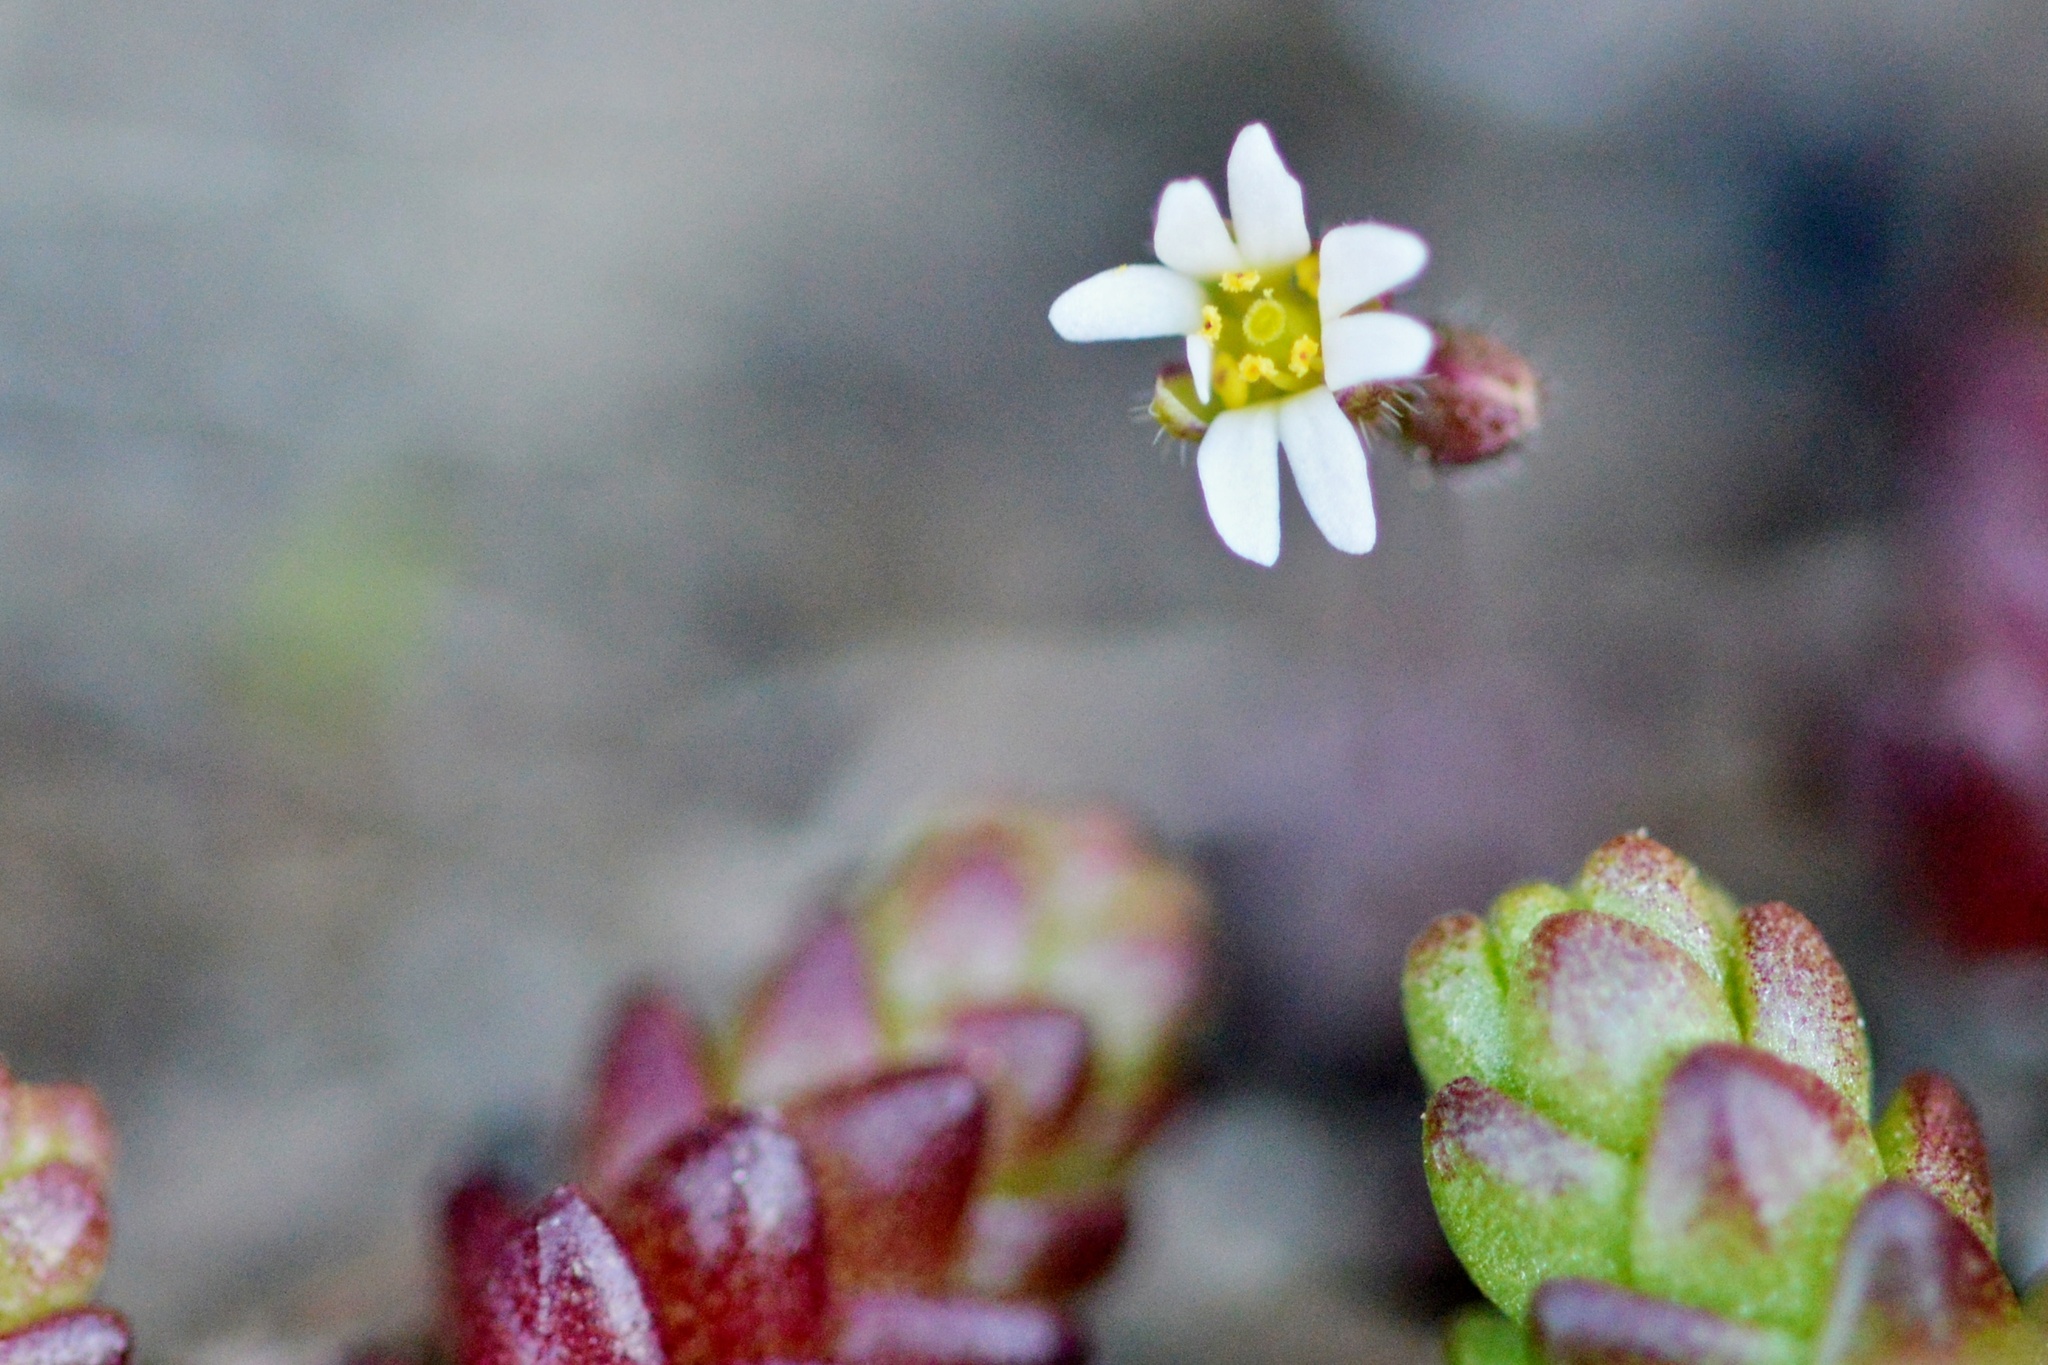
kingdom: Plantae
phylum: Tracheophyta
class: Magnoliopsida
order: Brassicales
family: Brassicaceae
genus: Draba
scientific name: Draba verna
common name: Spring draba
